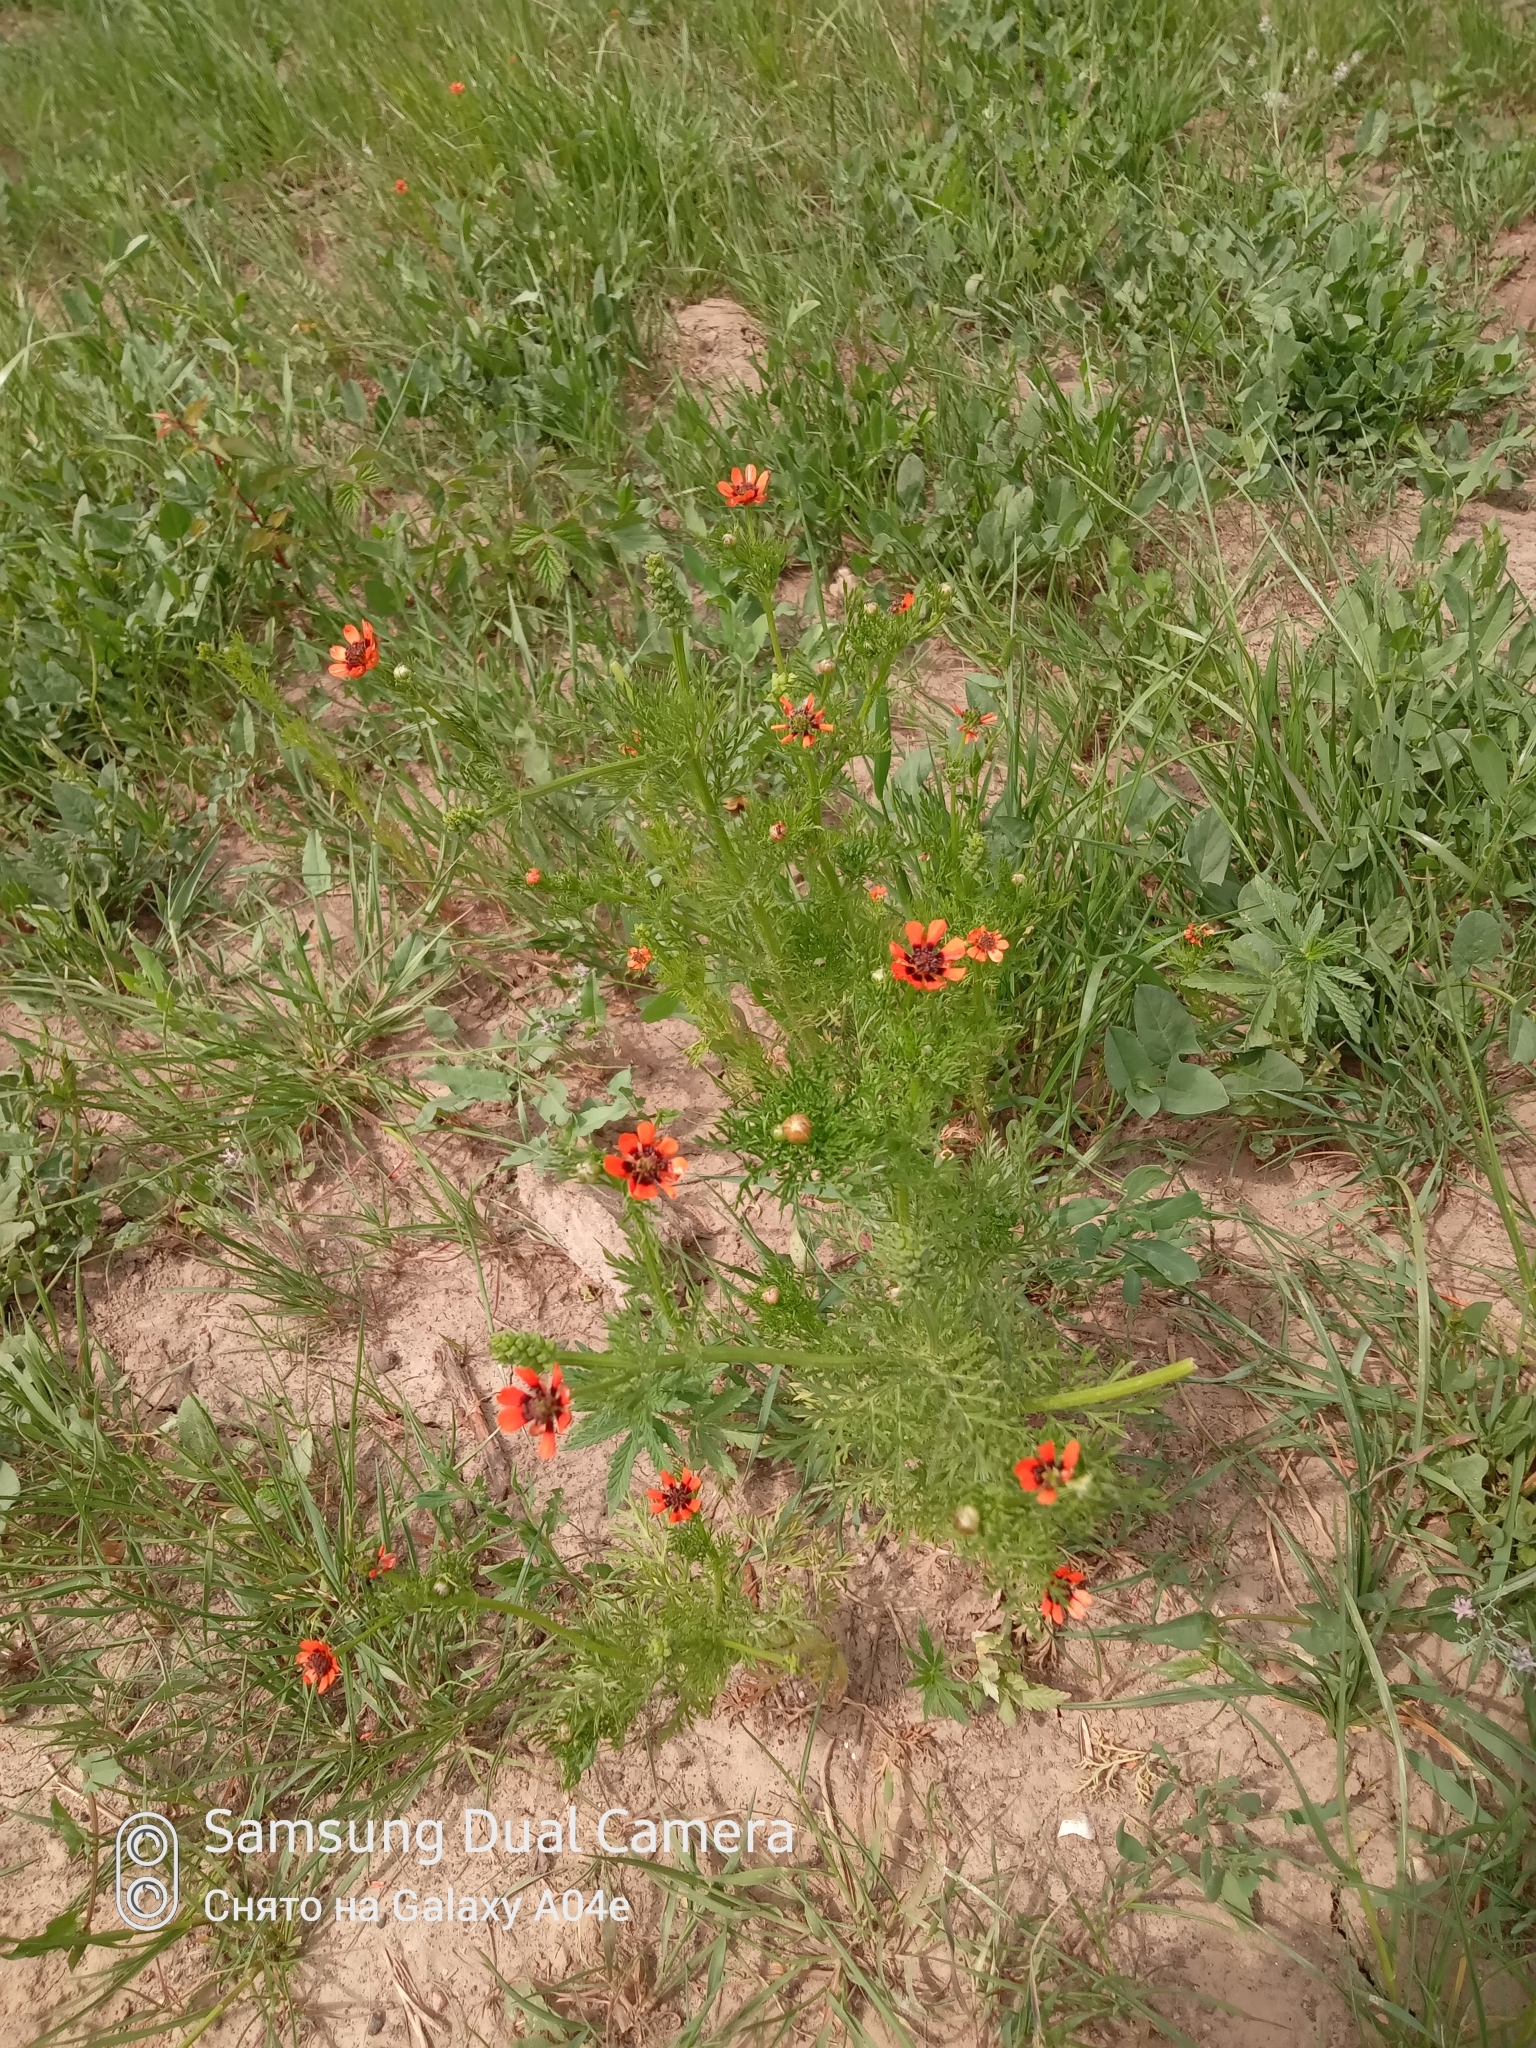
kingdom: Plantae
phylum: Tracheophyta
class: Magnoliopsida
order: Ranunculales
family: Ranunculaceae
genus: Adonis
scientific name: Adonis aestivalis
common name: Summer pheasant's-eye
